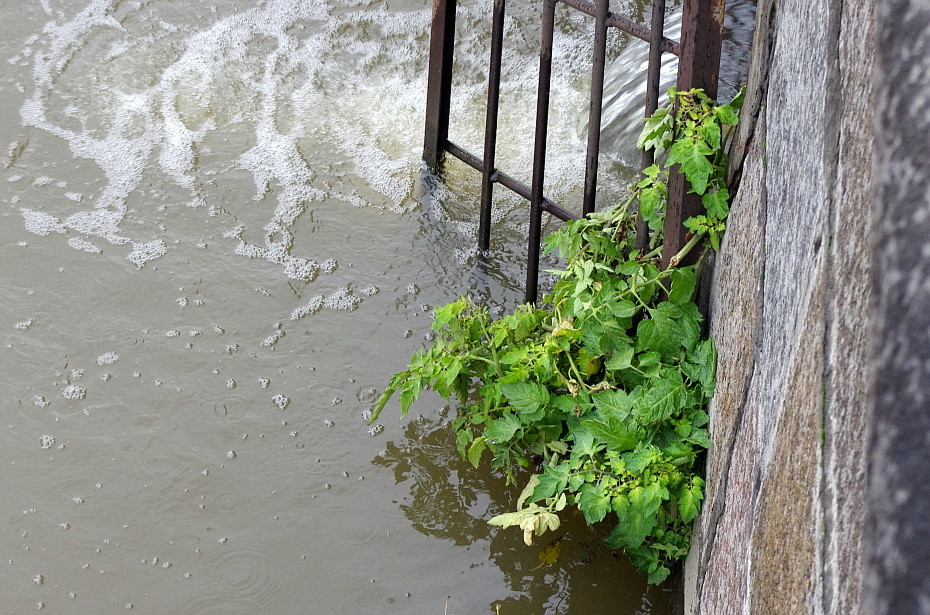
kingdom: Plantae
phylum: Tracheophyta
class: Magnoliopsida
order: Solanales
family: Solanaceae
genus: Solanum
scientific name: Solanum lycopersicum
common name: Garden tomato
